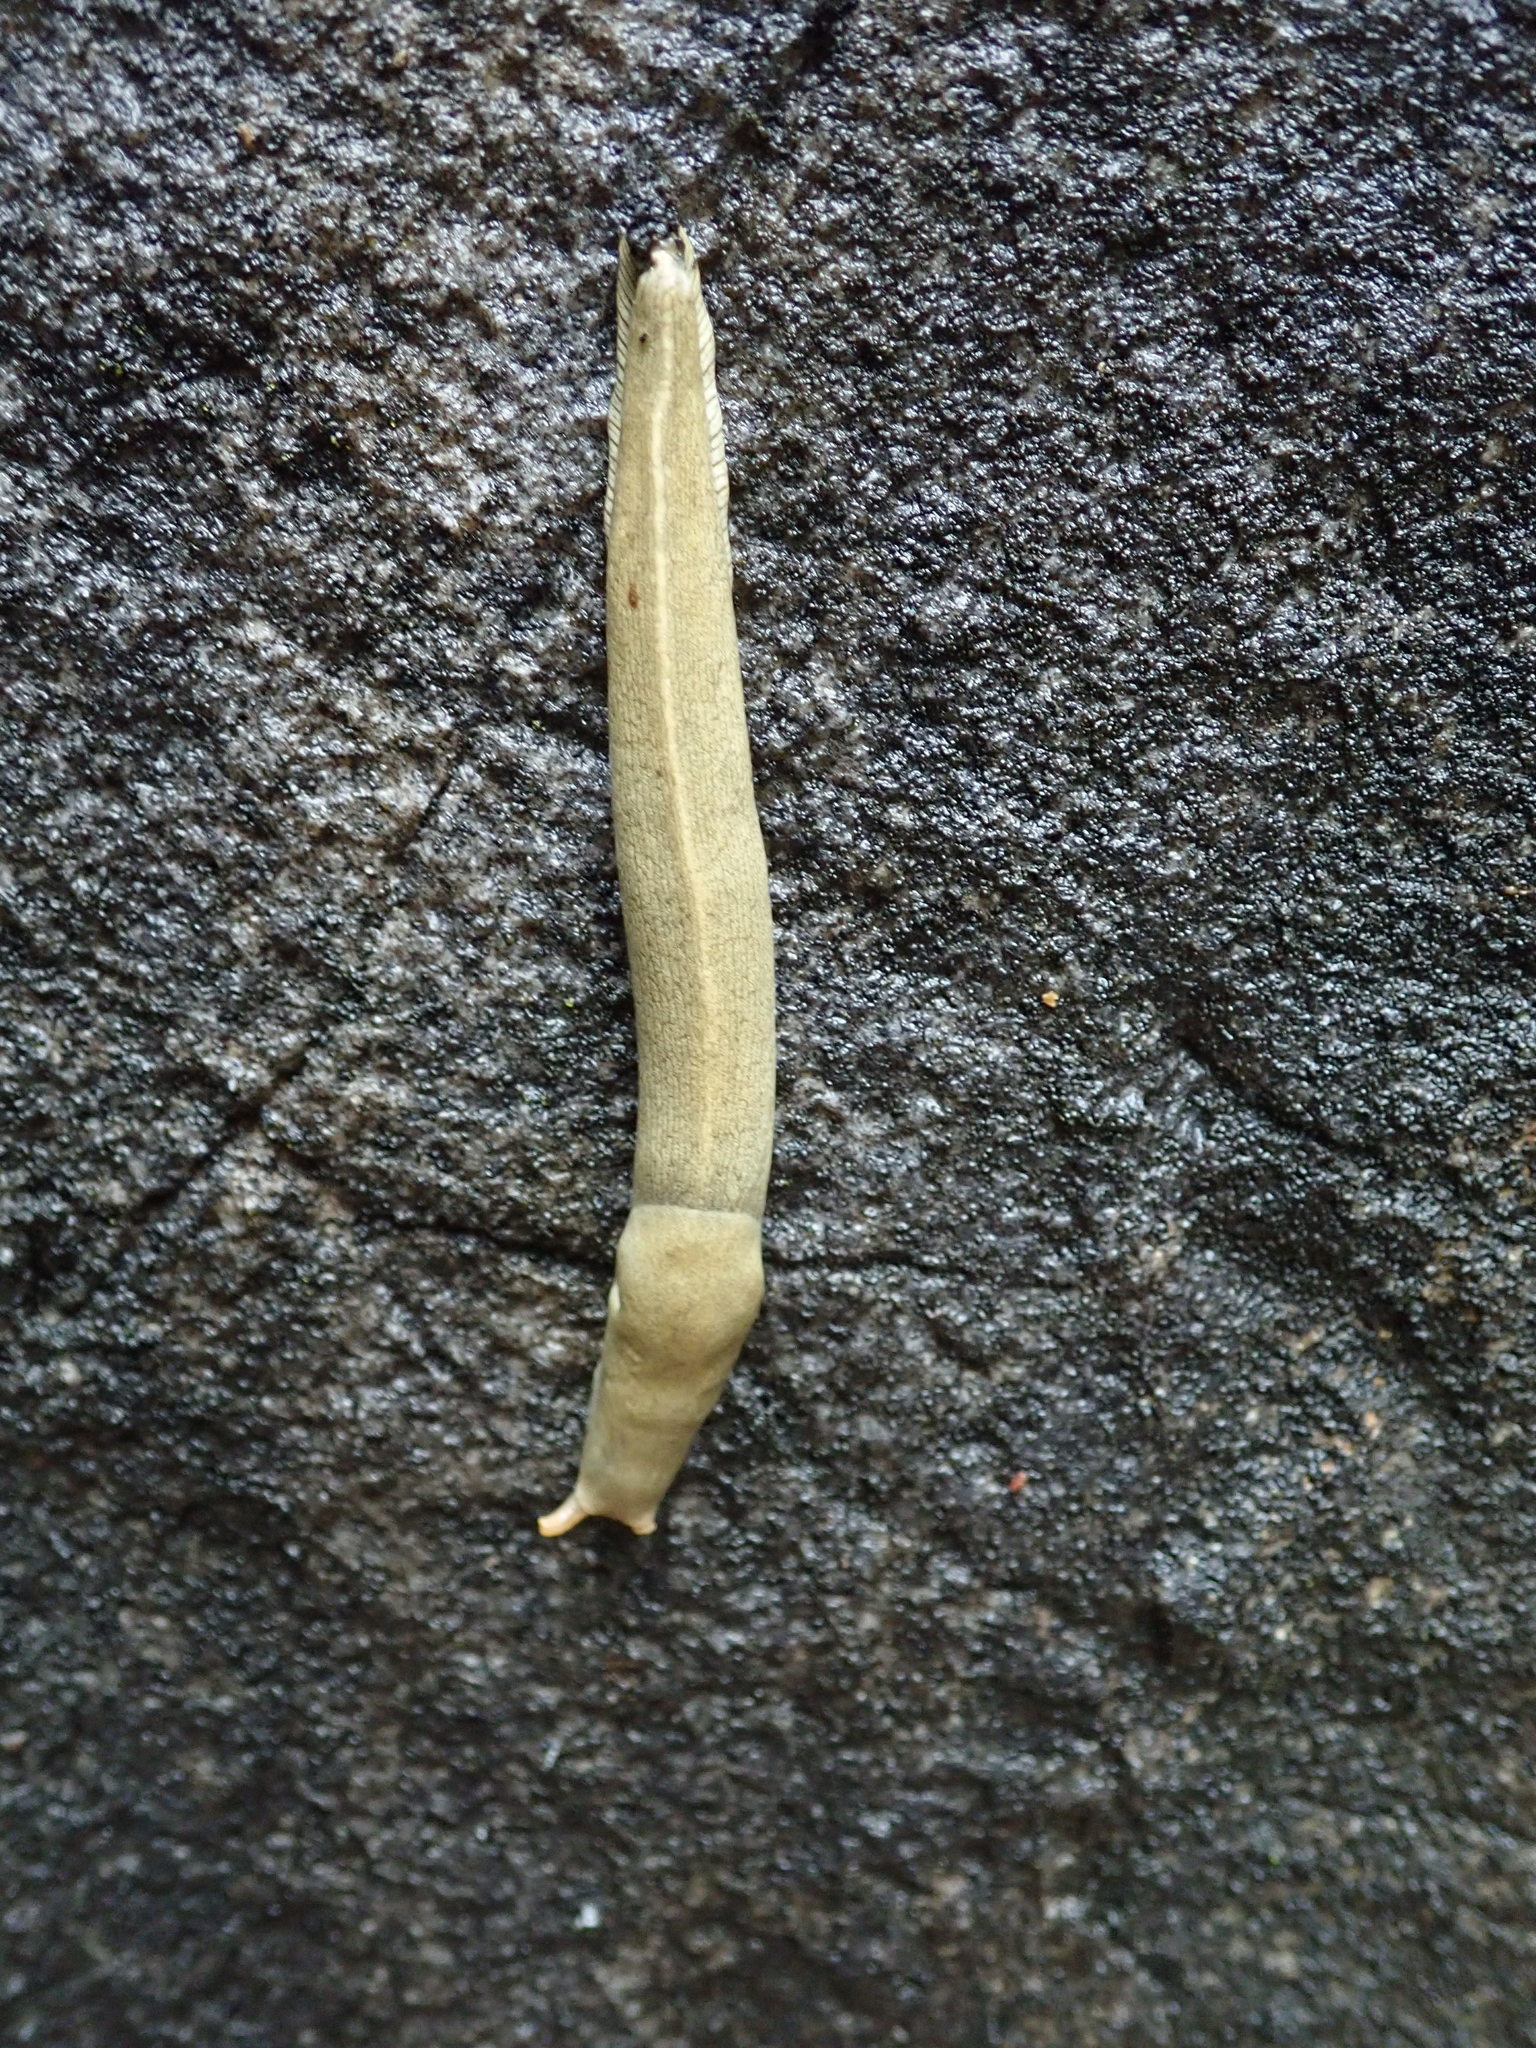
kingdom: Animalia
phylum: Mollusca
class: Gastropoda
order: Stylommatophora
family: Ariolimacidae
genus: Ariolimax
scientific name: Ariolimax columbianus
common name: Pacific banana slug
